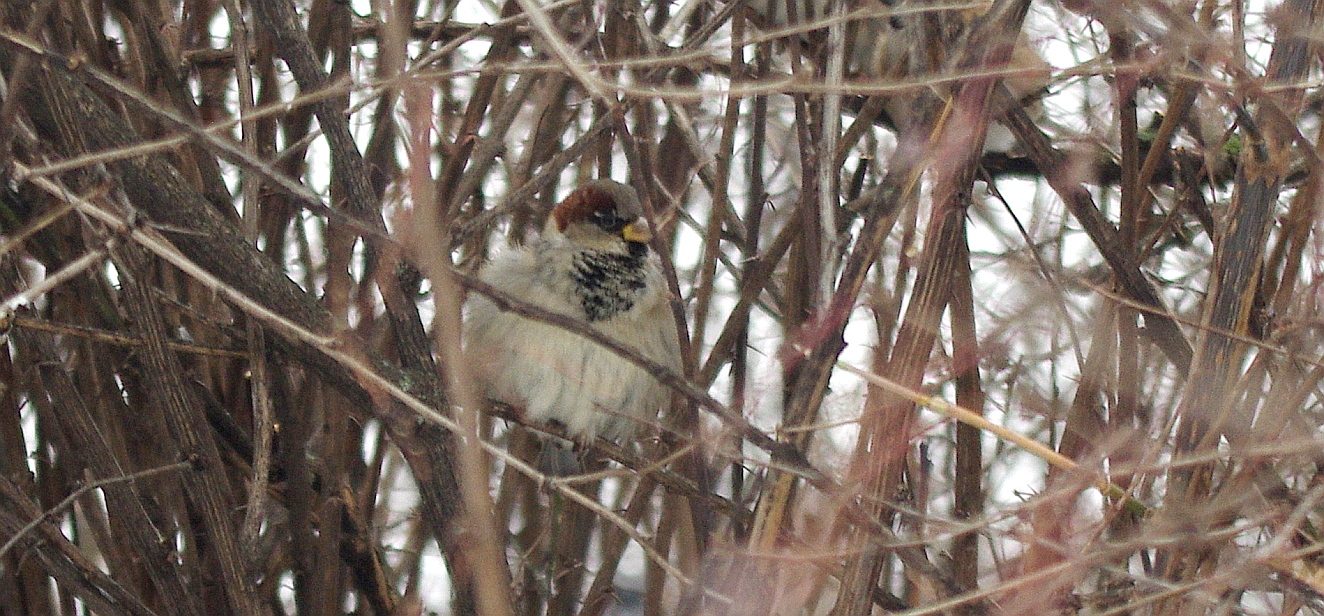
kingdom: Animalia
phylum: Chordata
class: Aves
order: Passeriformes
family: Passeridae
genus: Passer
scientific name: Passer domesticus
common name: House sparrow
